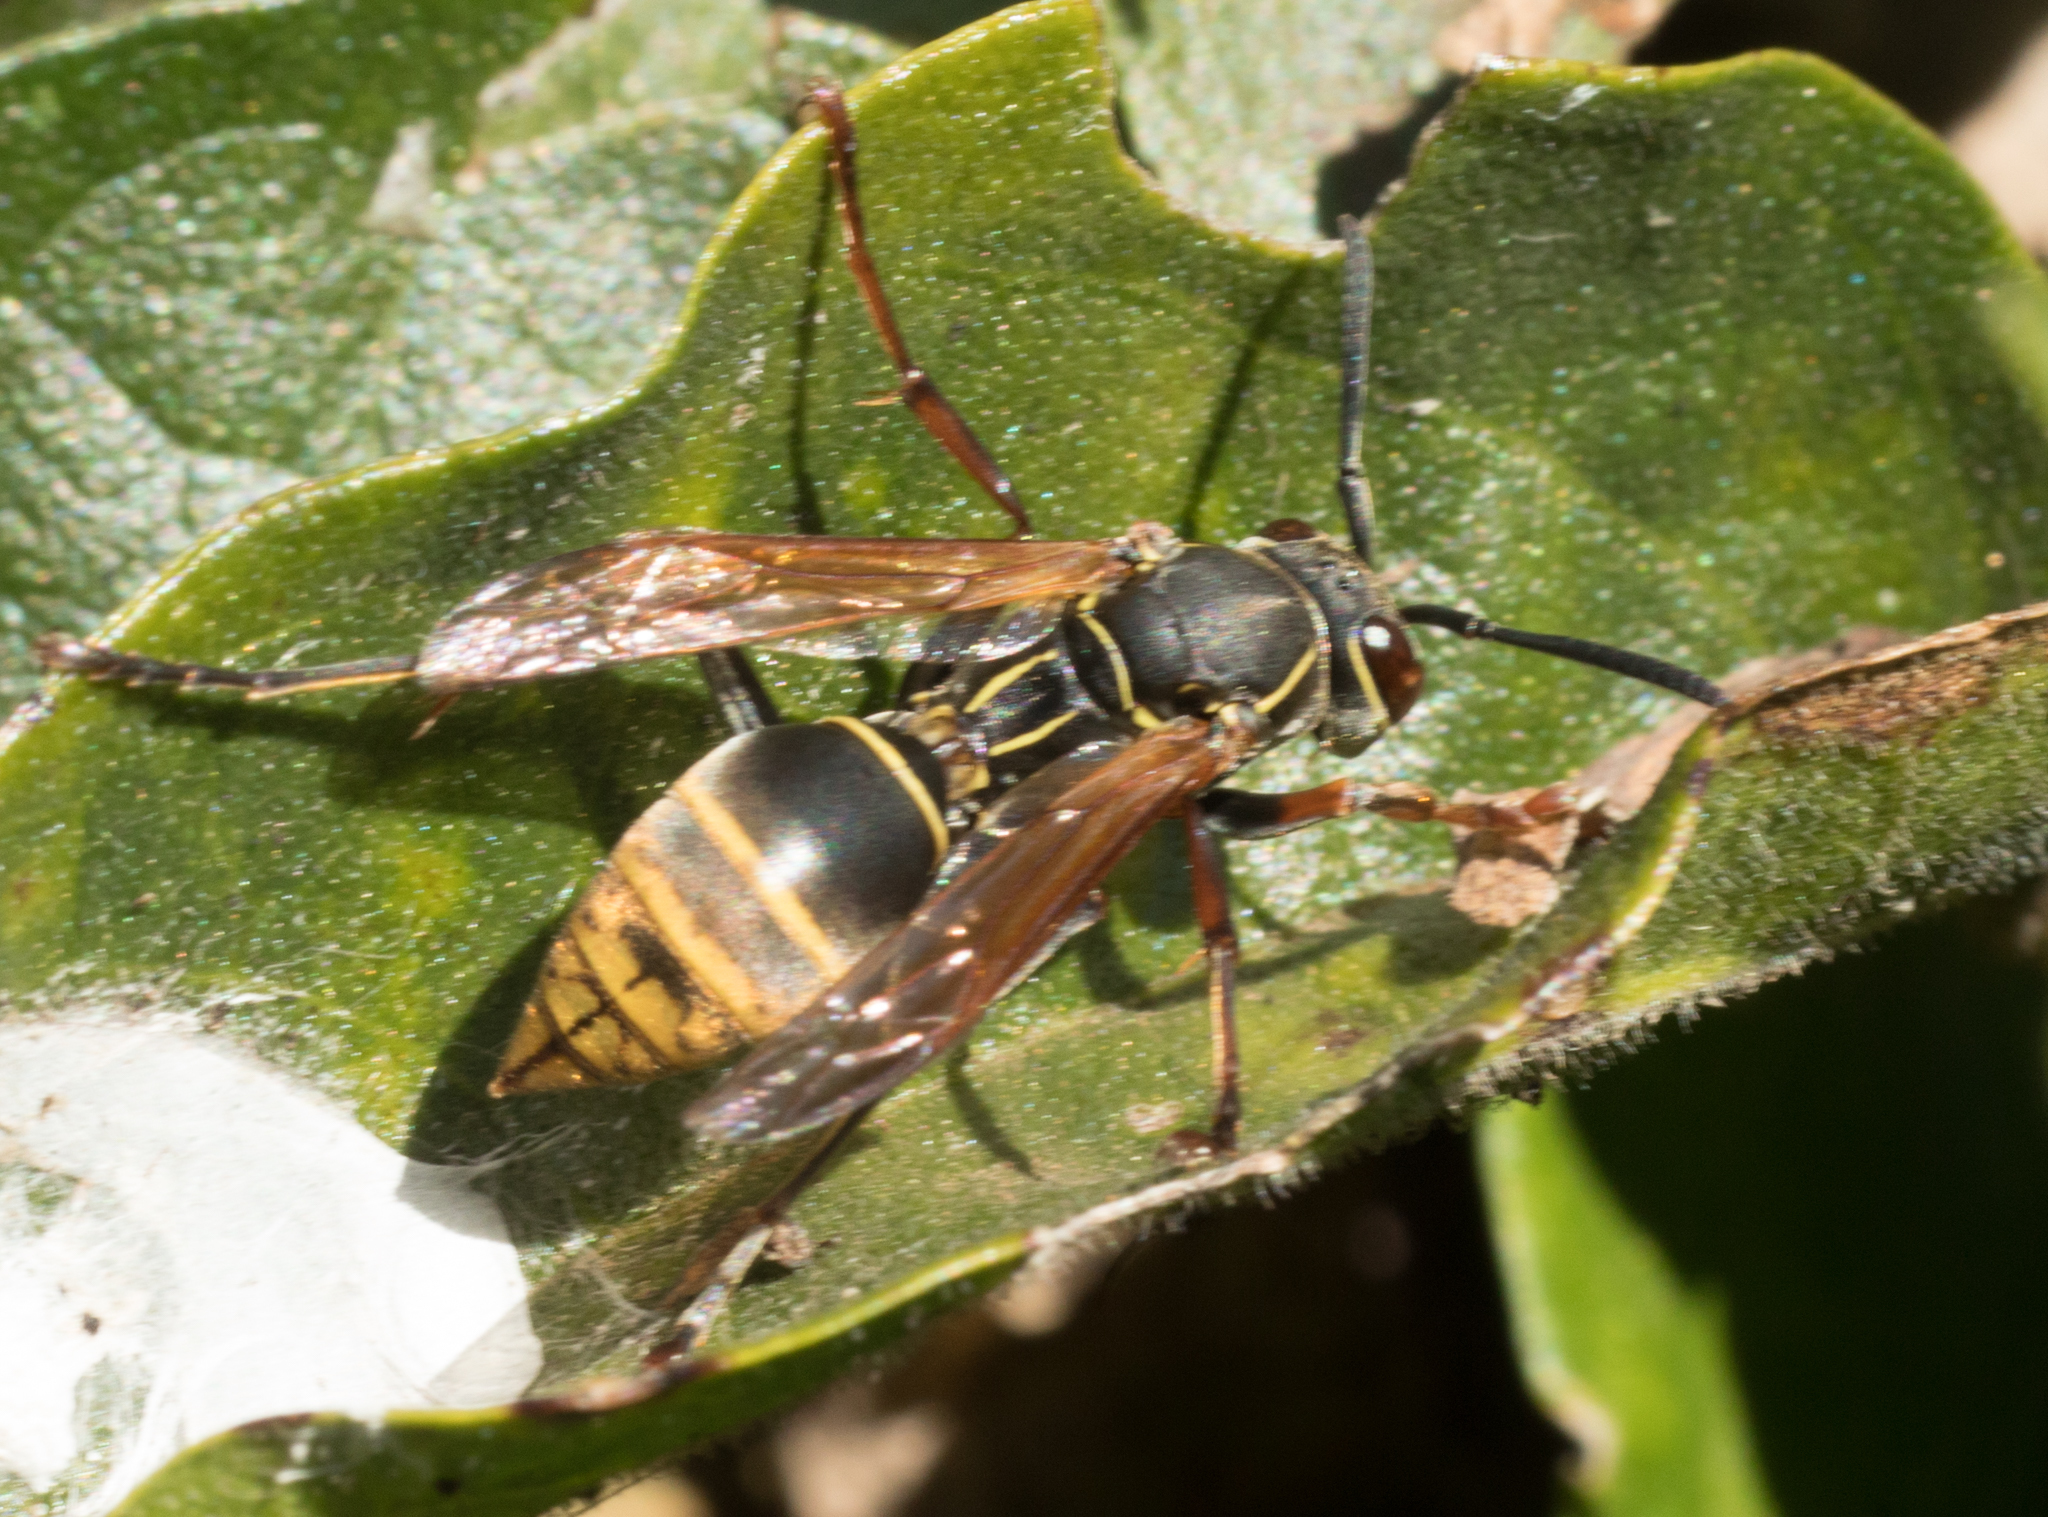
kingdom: Animalia
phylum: Arthropoda
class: Insecta
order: Hymenoptera
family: Eumenidae
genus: Polistes
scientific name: Polistes cinerascens
